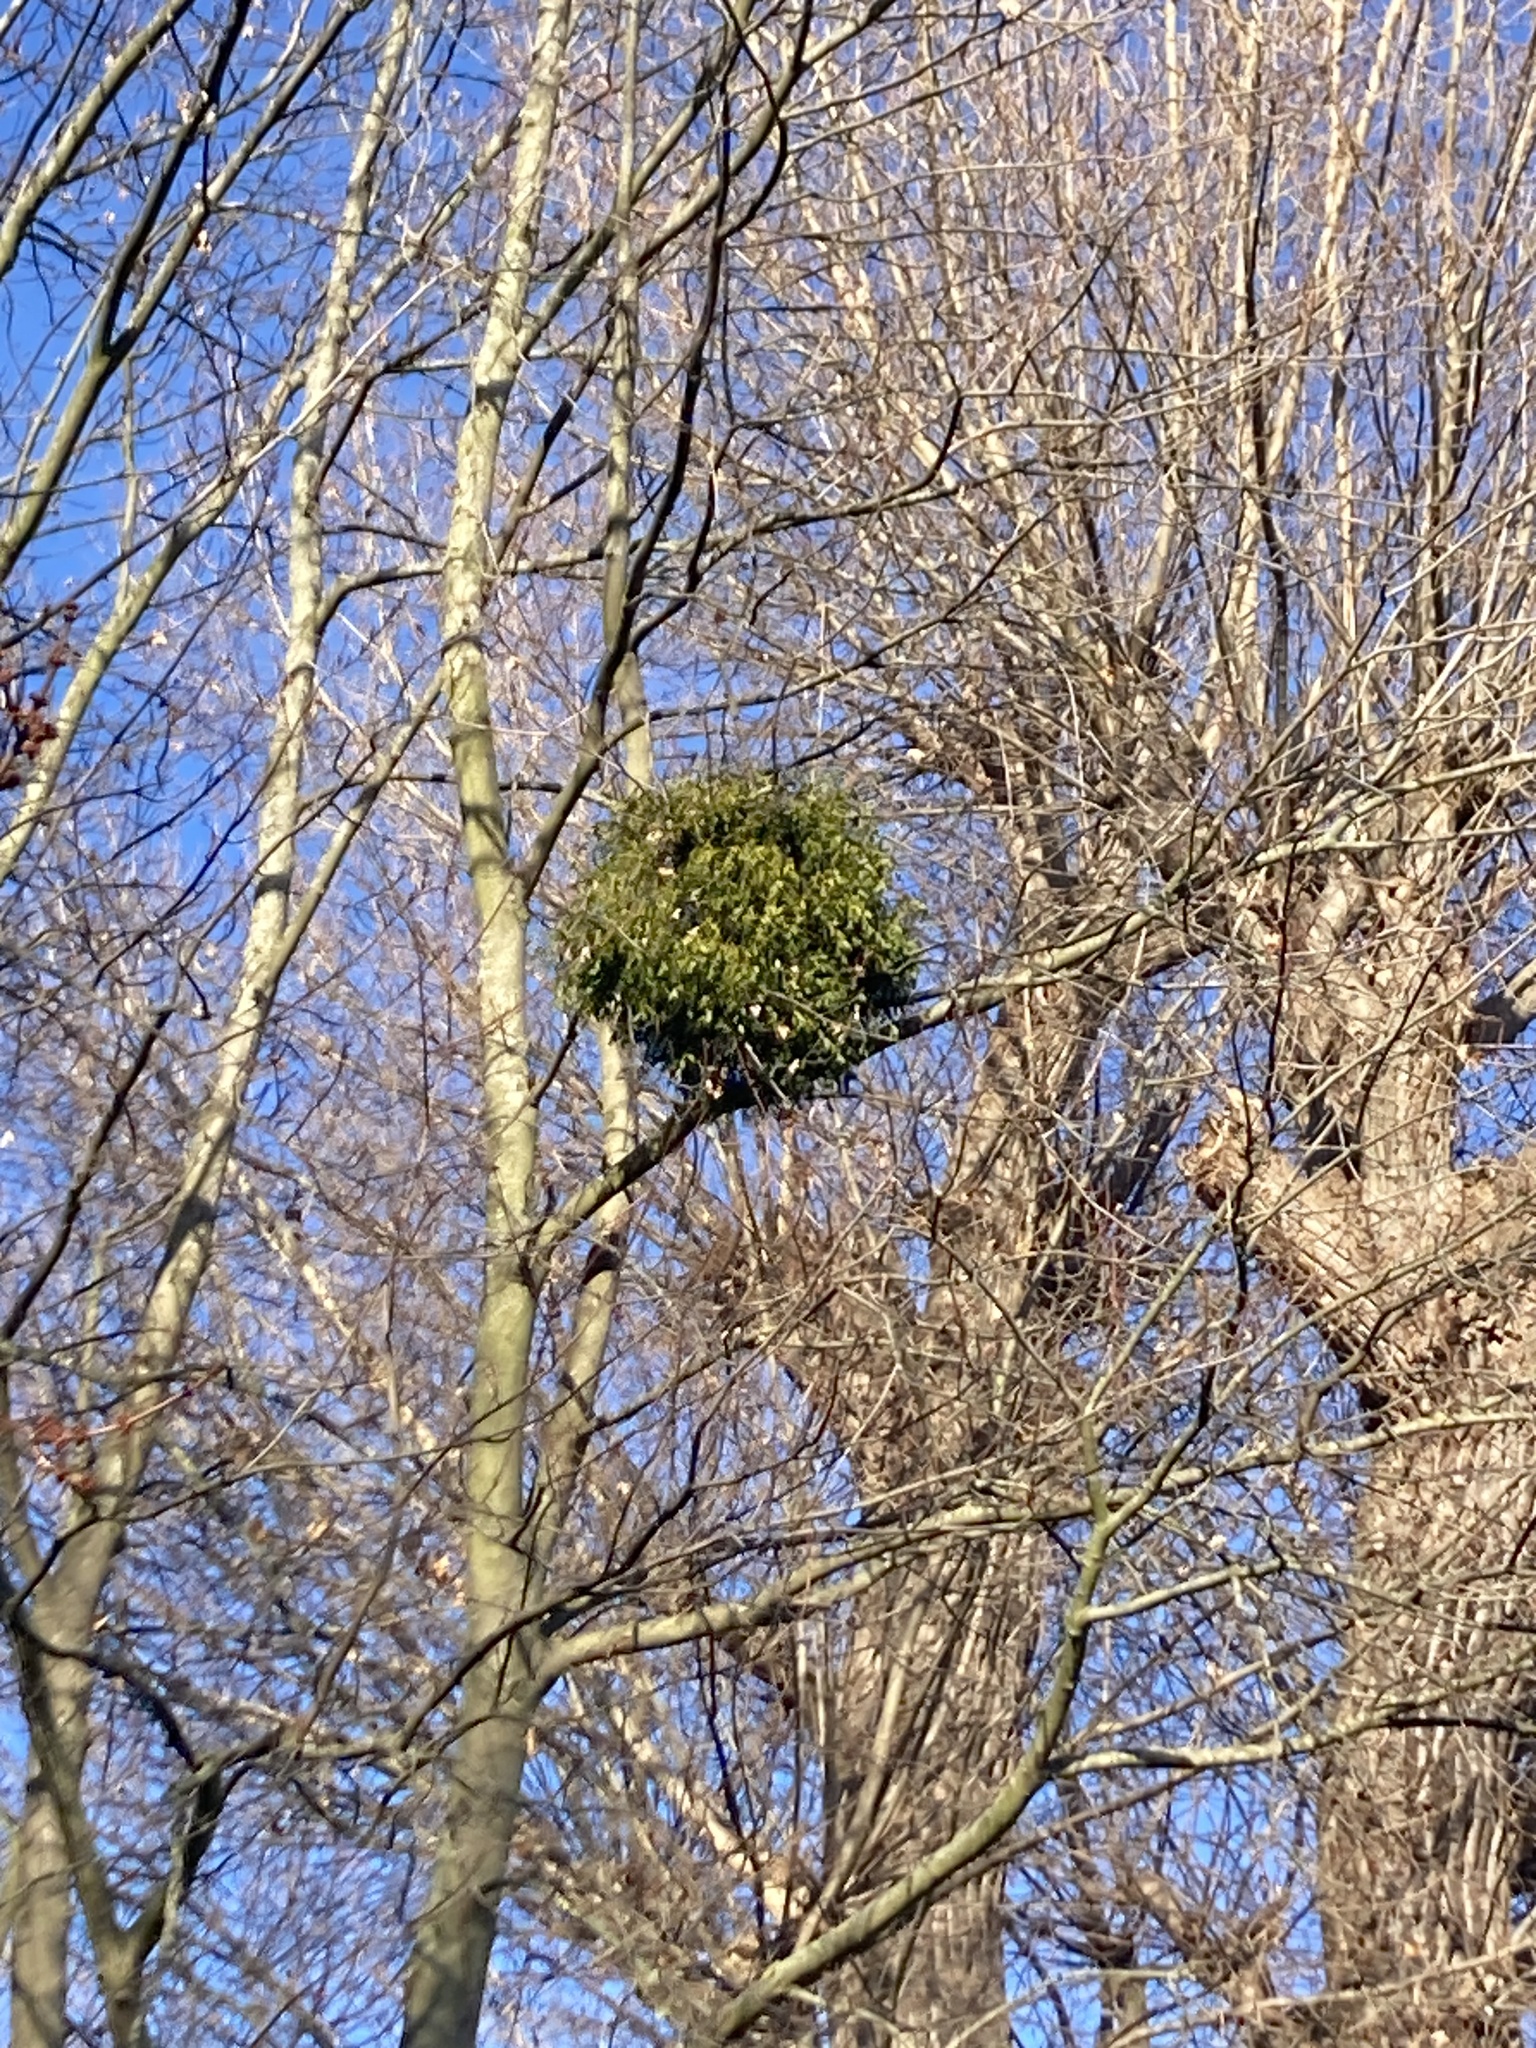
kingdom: Plantae
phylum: Tracheophyta
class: Magnoliopsida
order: Santalales
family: Viscaceae
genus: Viscum
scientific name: Viscum album
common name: Mistletoe
